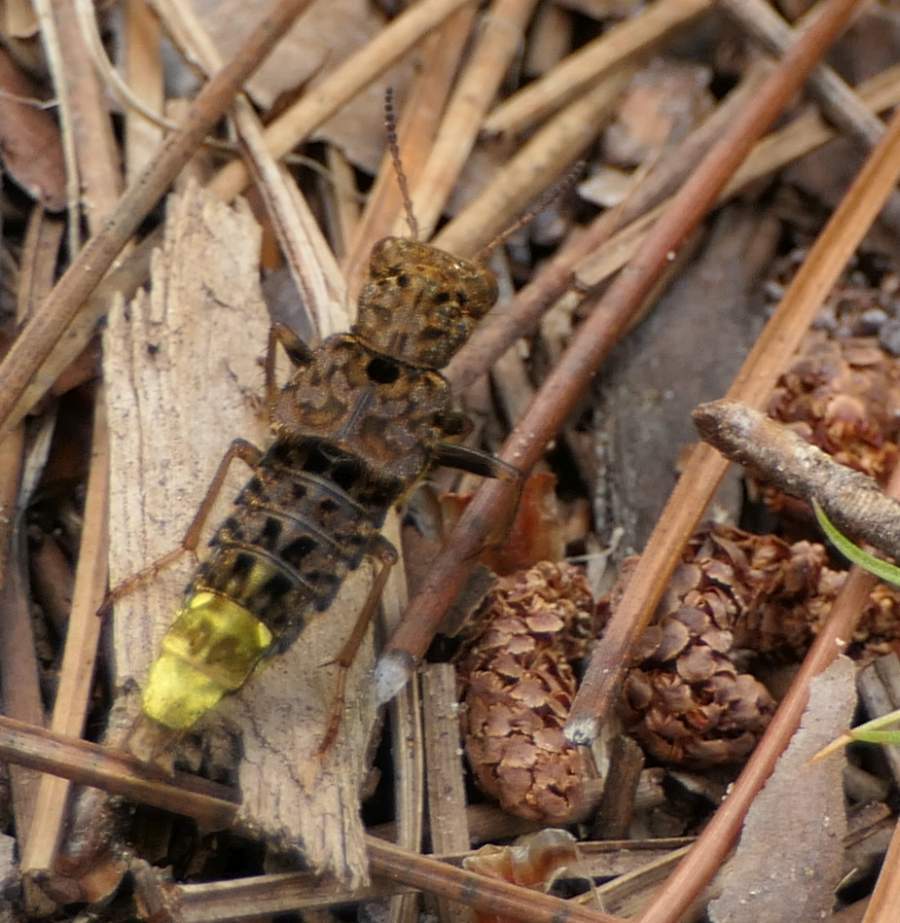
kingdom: Animalia
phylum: Arthropoda
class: Insecta
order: Coleoptera
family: Staphylinidae
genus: Ontholestes
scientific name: Ontholestes cingulatus
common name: Gold-and-brown rove beetle
